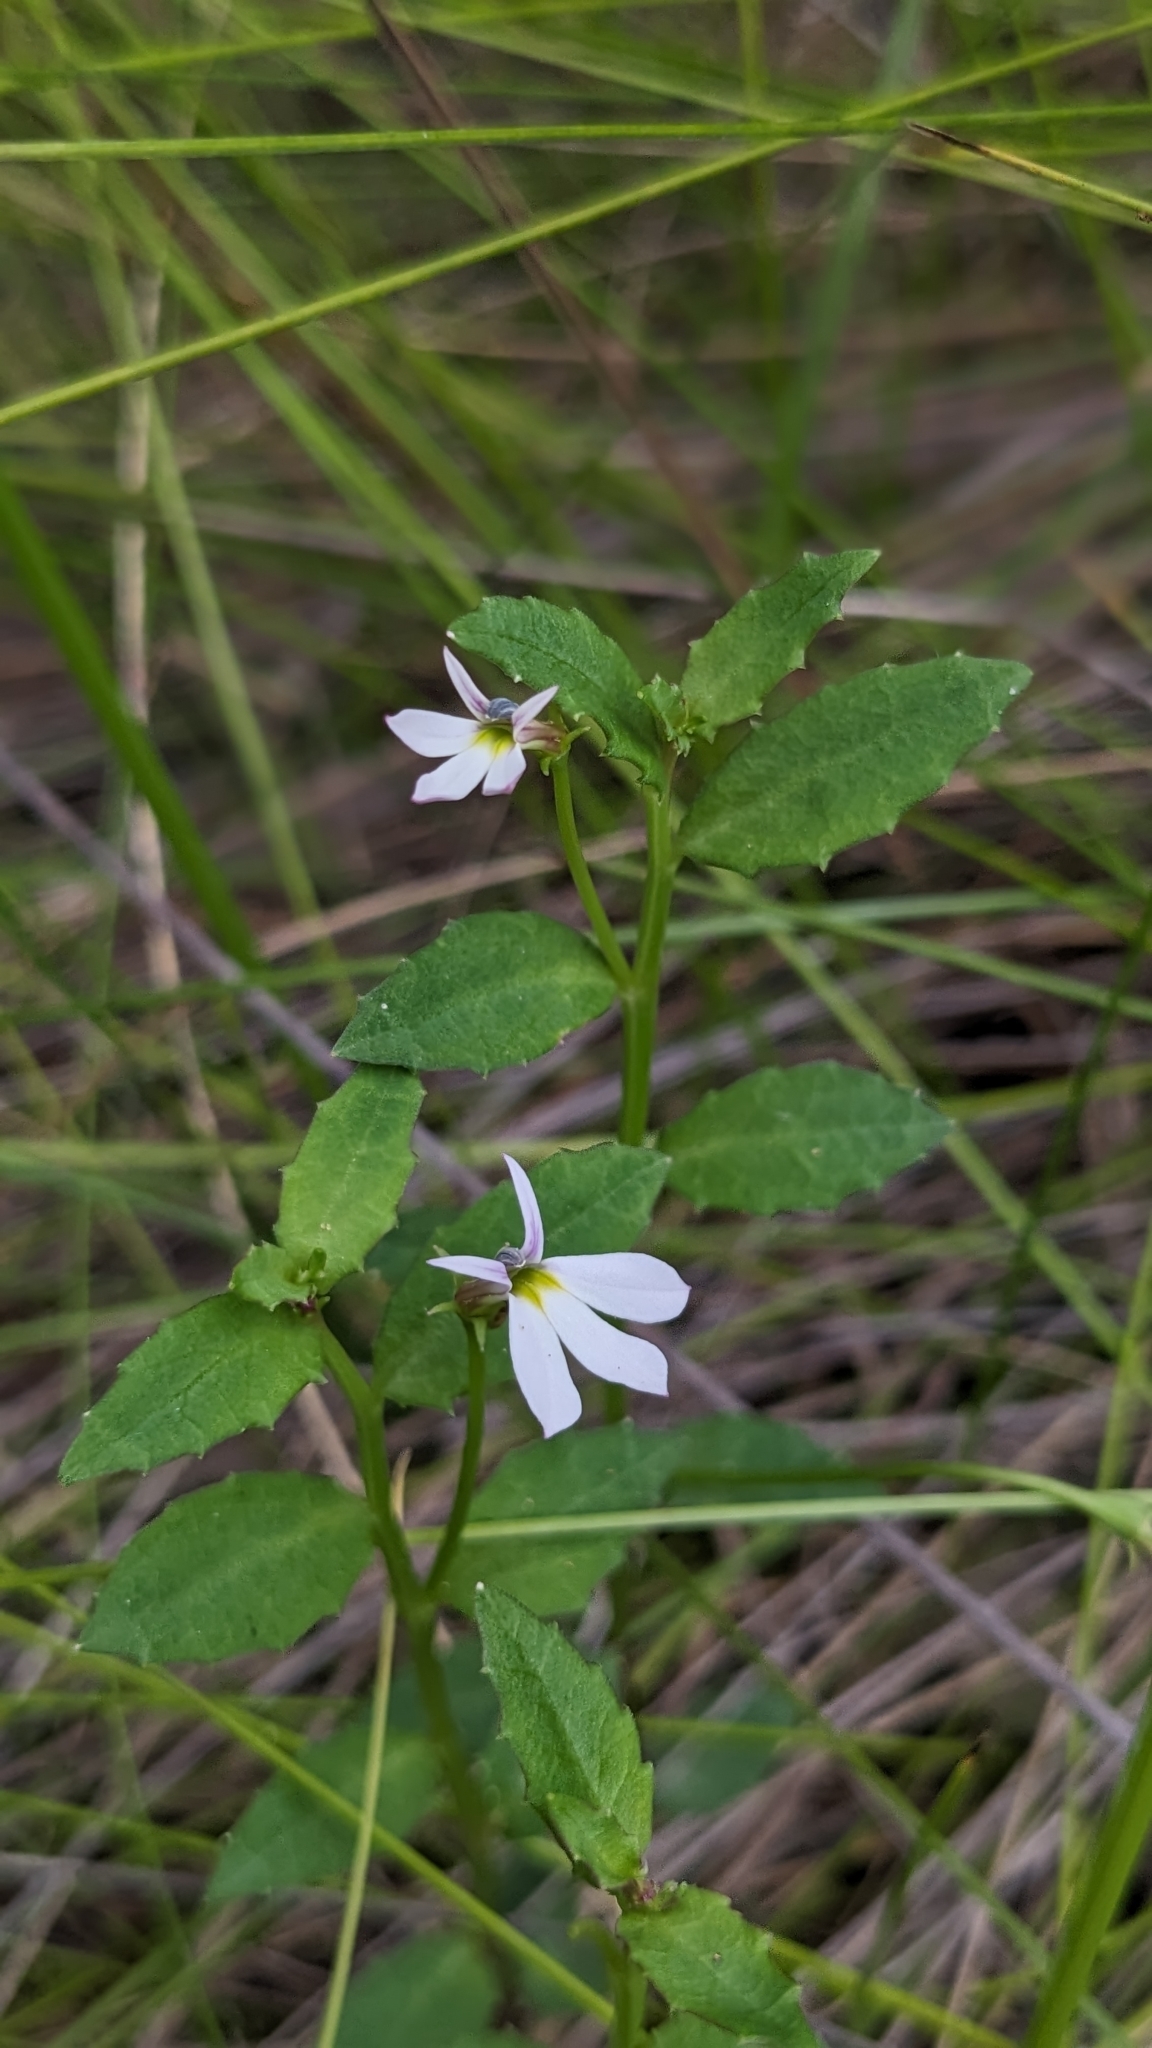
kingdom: Plantae
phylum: Tracheophyta
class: Magnoliopsida
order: Asterales
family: Campanulaceae
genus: Lobelia
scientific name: Lobelia purpurascens
